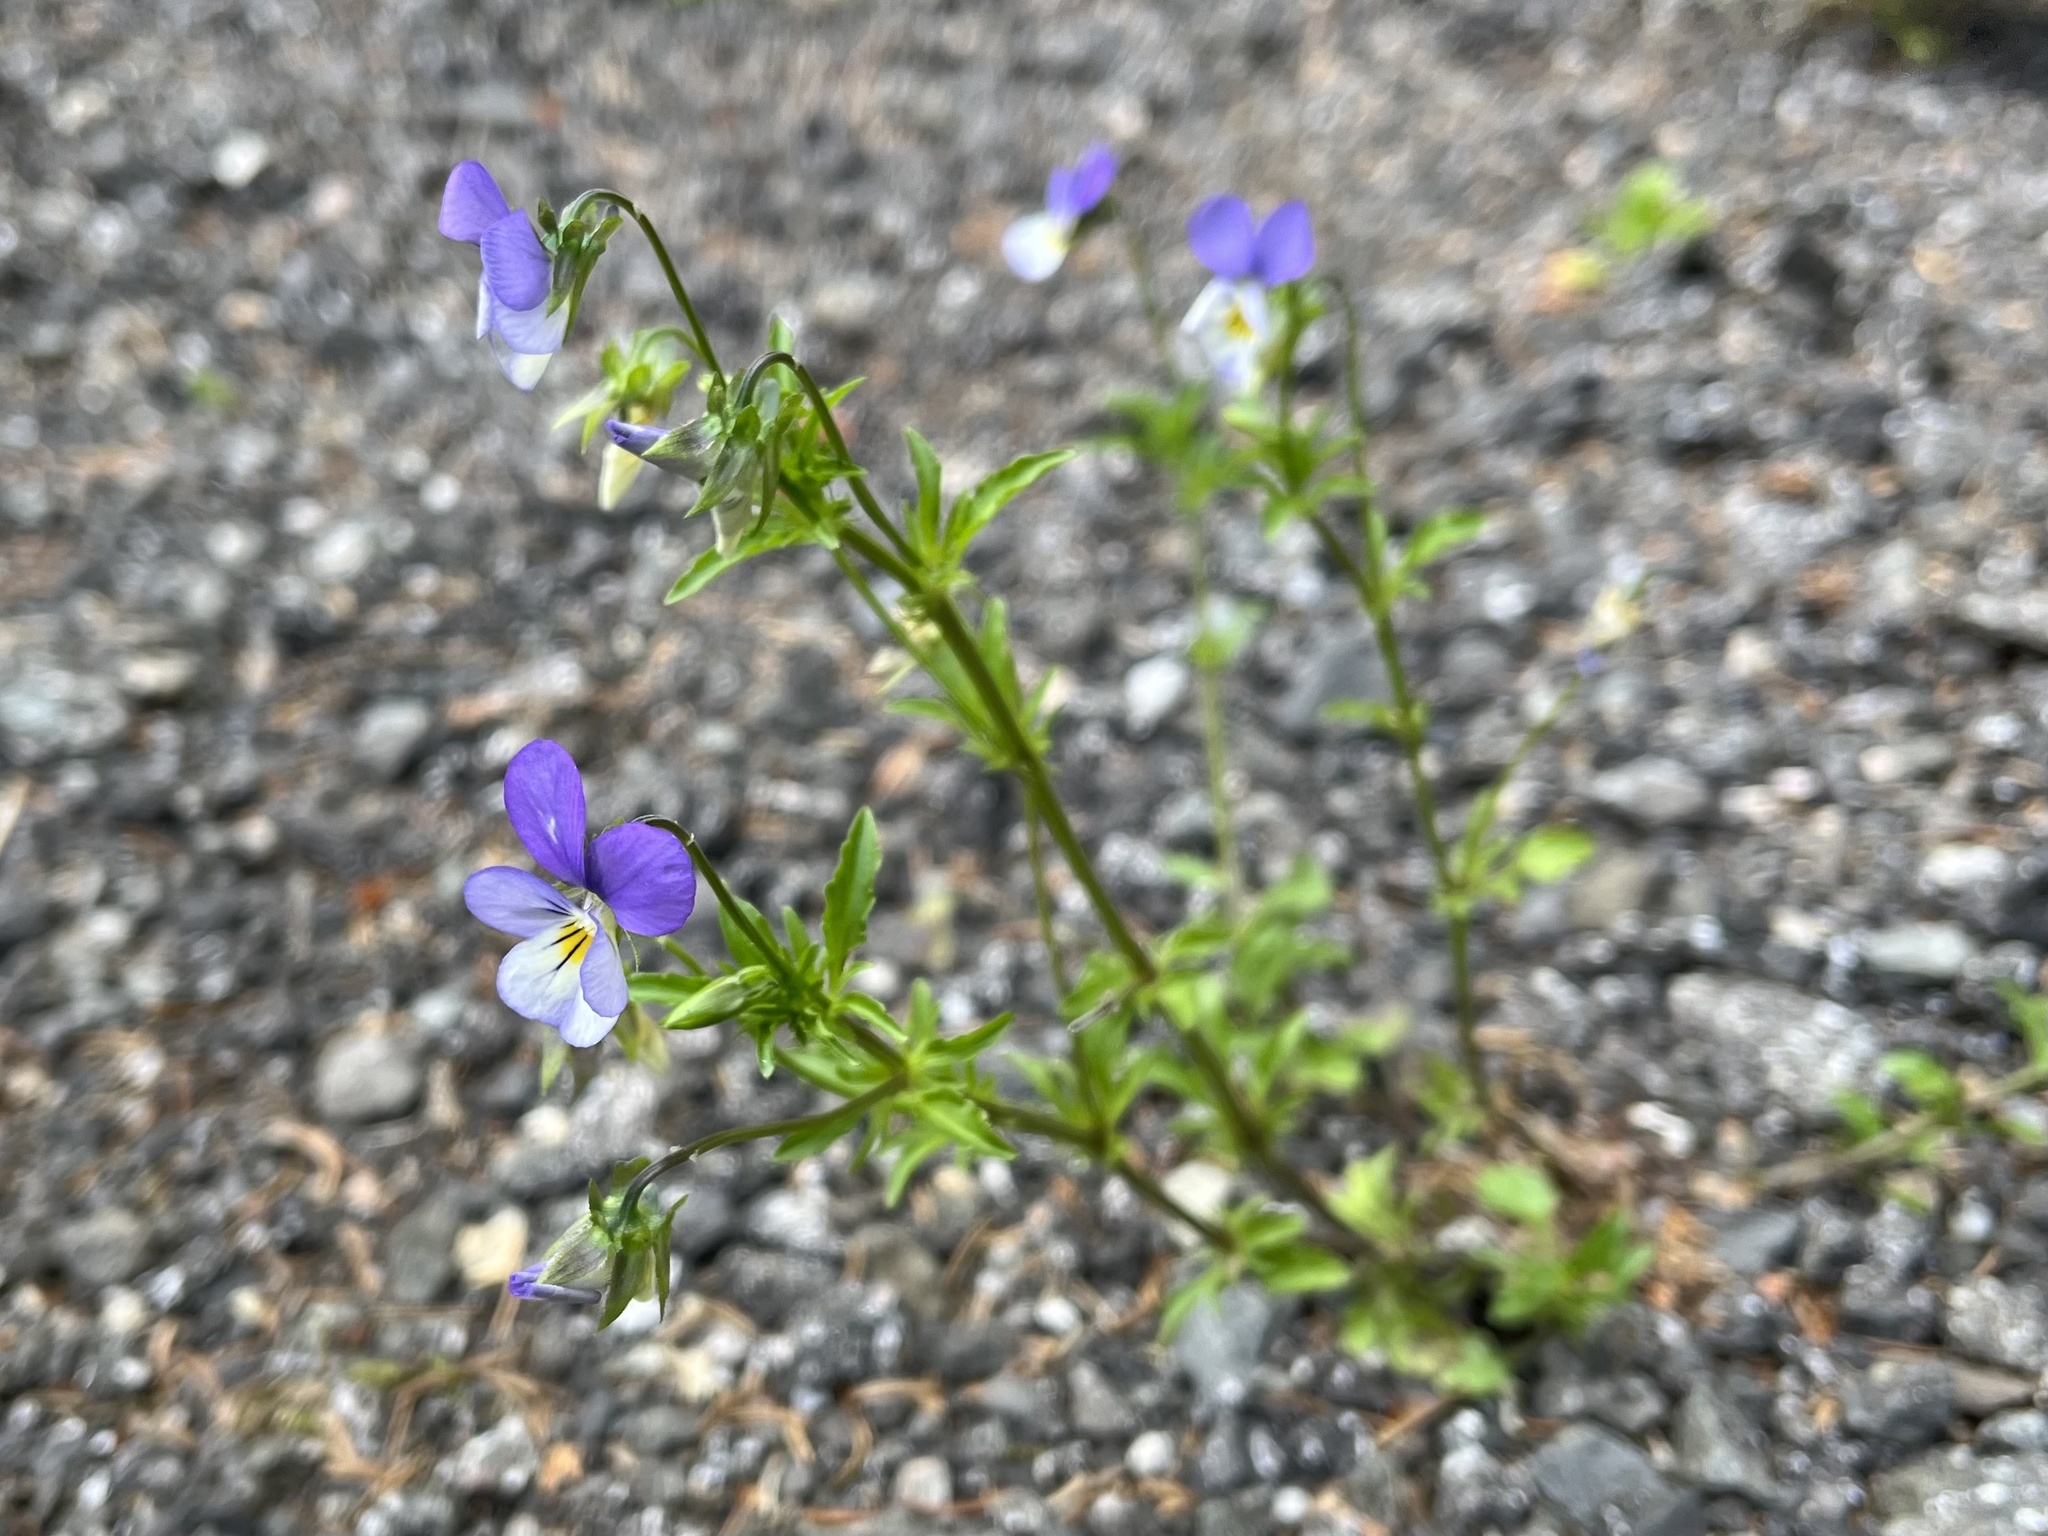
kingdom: Plantae
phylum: Tracheophyta
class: Magnoliopsida
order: Malpighiales
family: Violaceae
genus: Viola
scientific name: Viola tricolor
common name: Pansy
